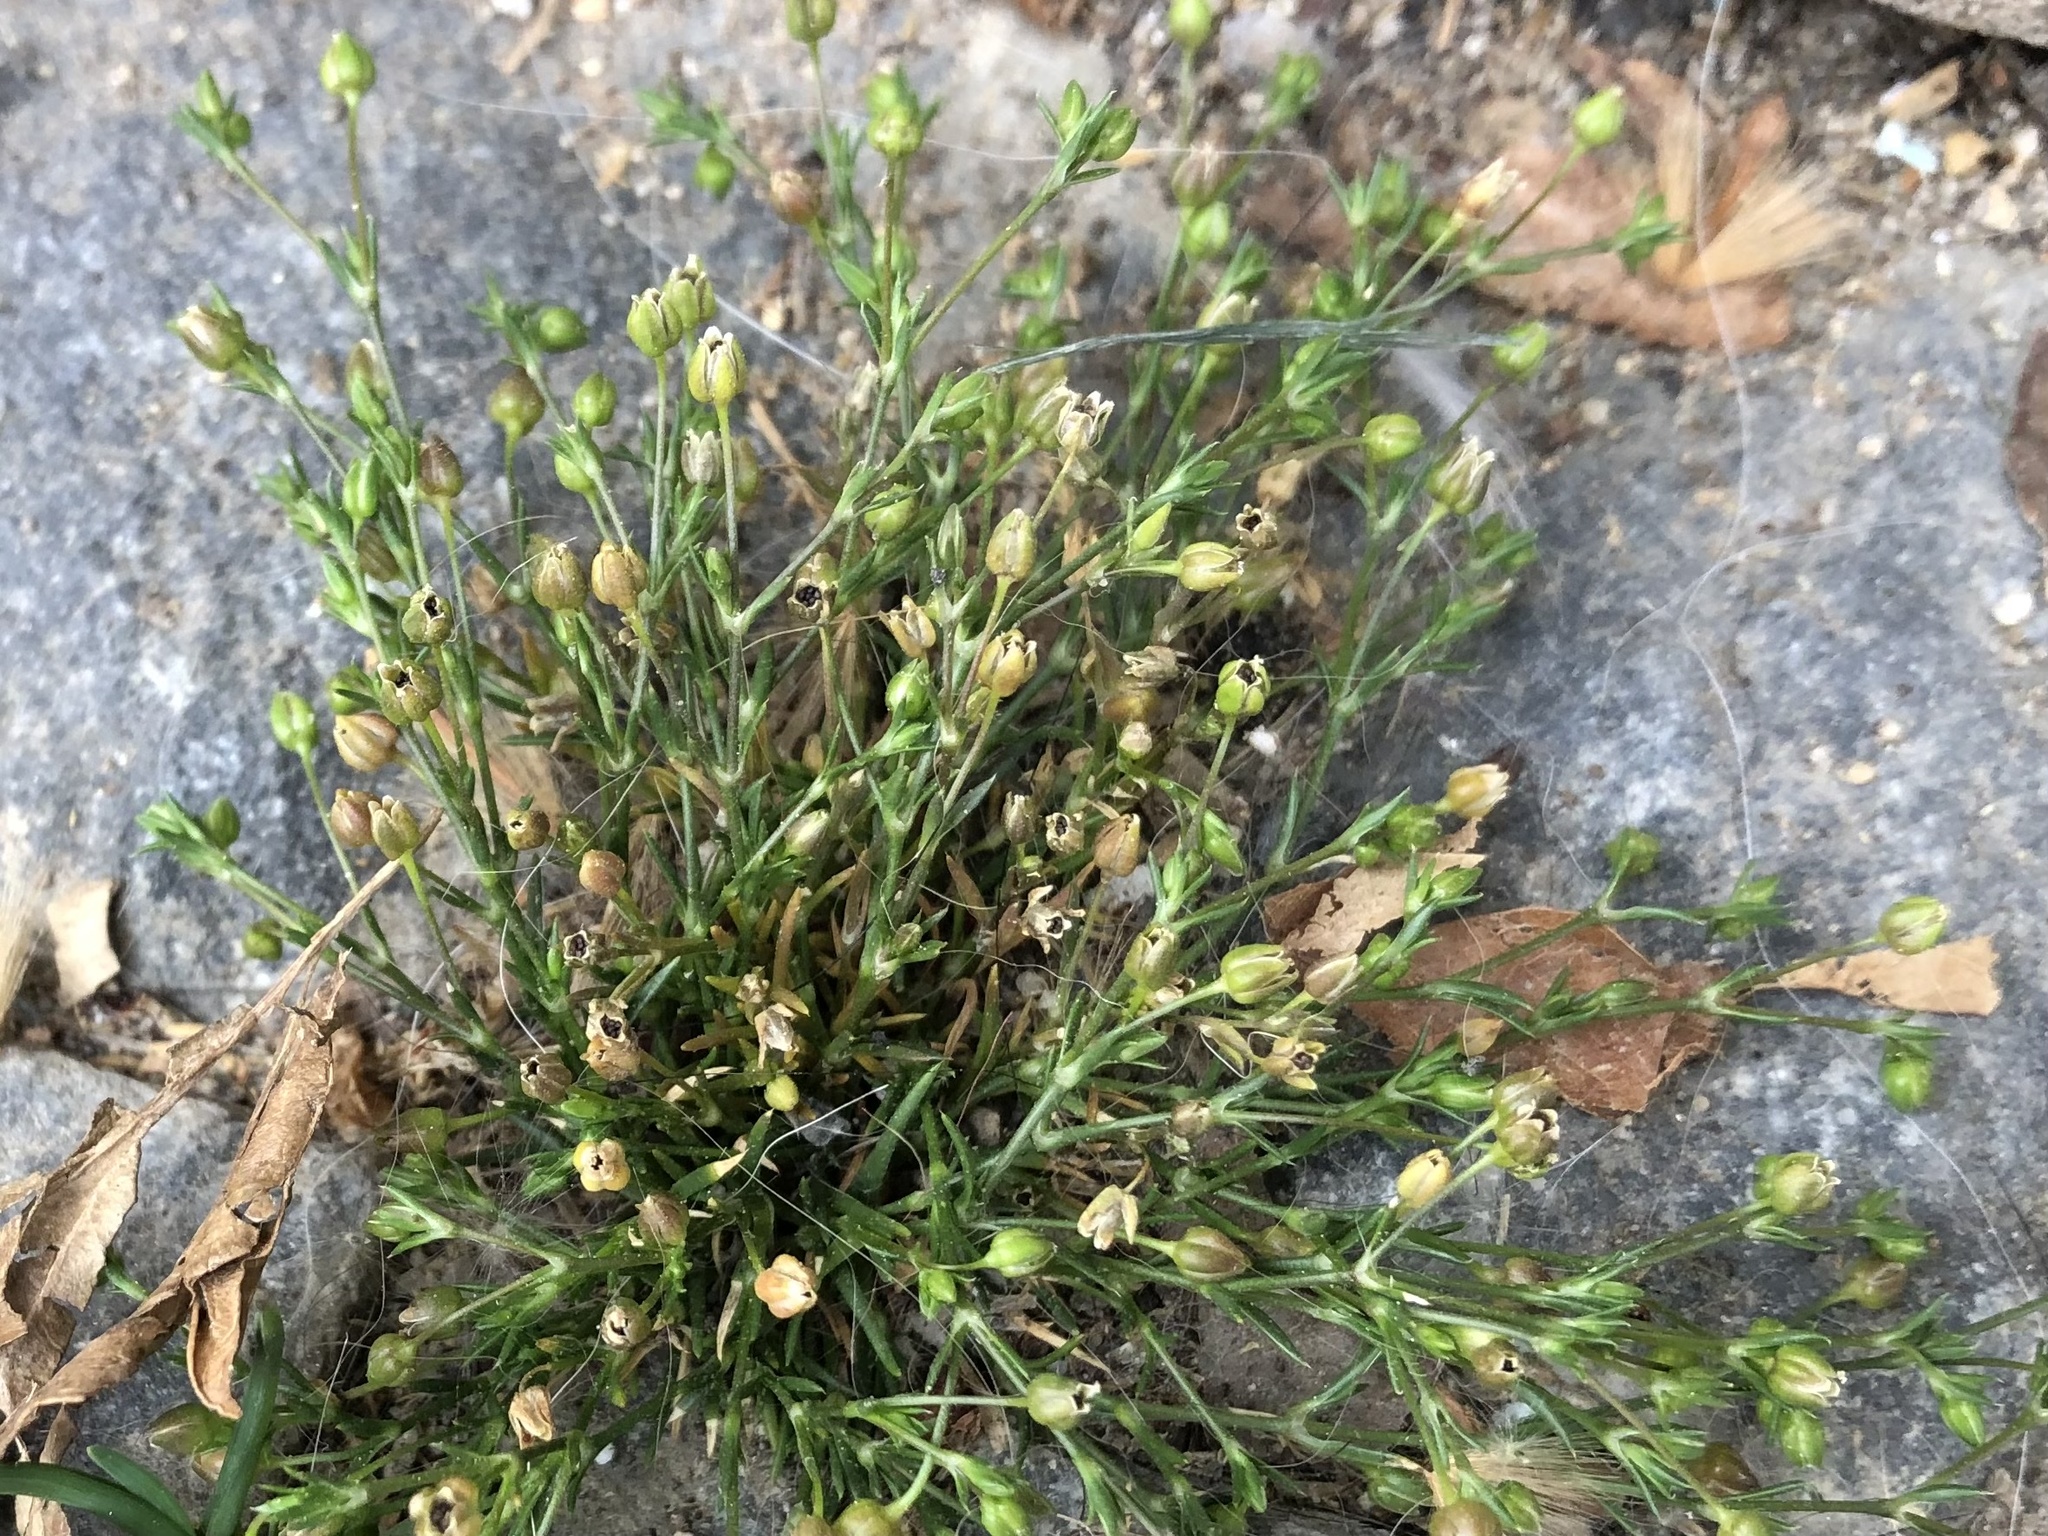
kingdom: Plantae
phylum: Tracheophyta
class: Magnoliopsida
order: Caryophyllales
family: Caryophyllaceae
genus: Sagina
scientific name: Sagina procumbens
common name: Procumbent pearlwort
